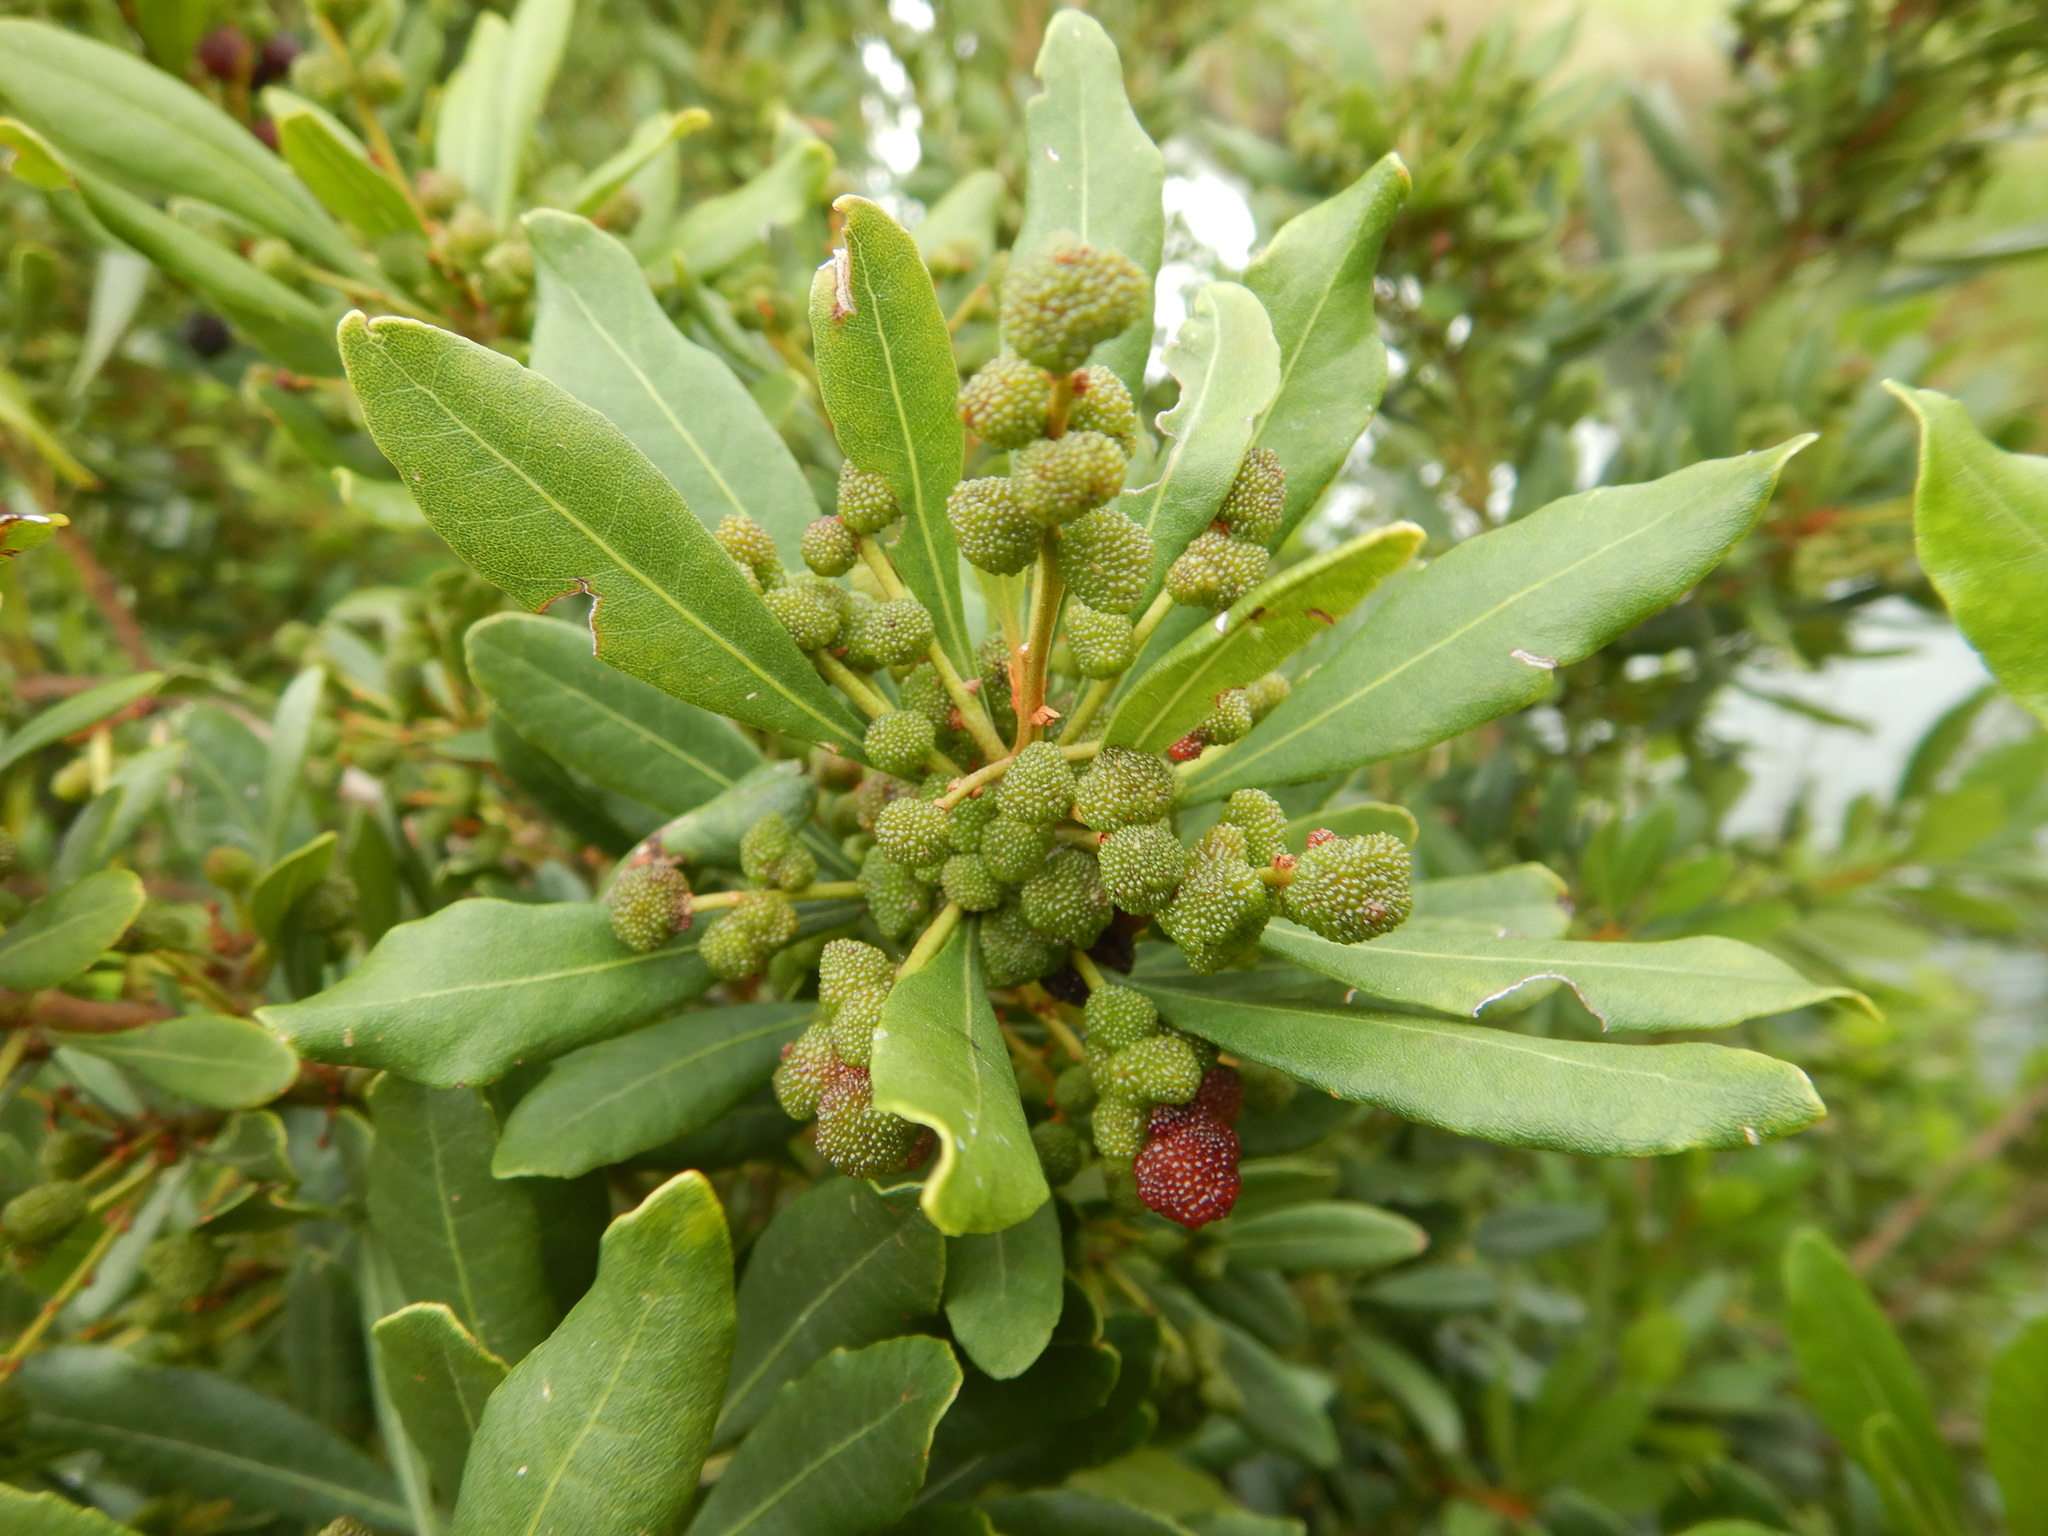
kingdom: Plantae
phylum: Tracheophyta
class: Magnoliopsida
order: Fagales
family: Myricaceae
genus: Morella
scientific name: Morella faya
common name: Firetree
